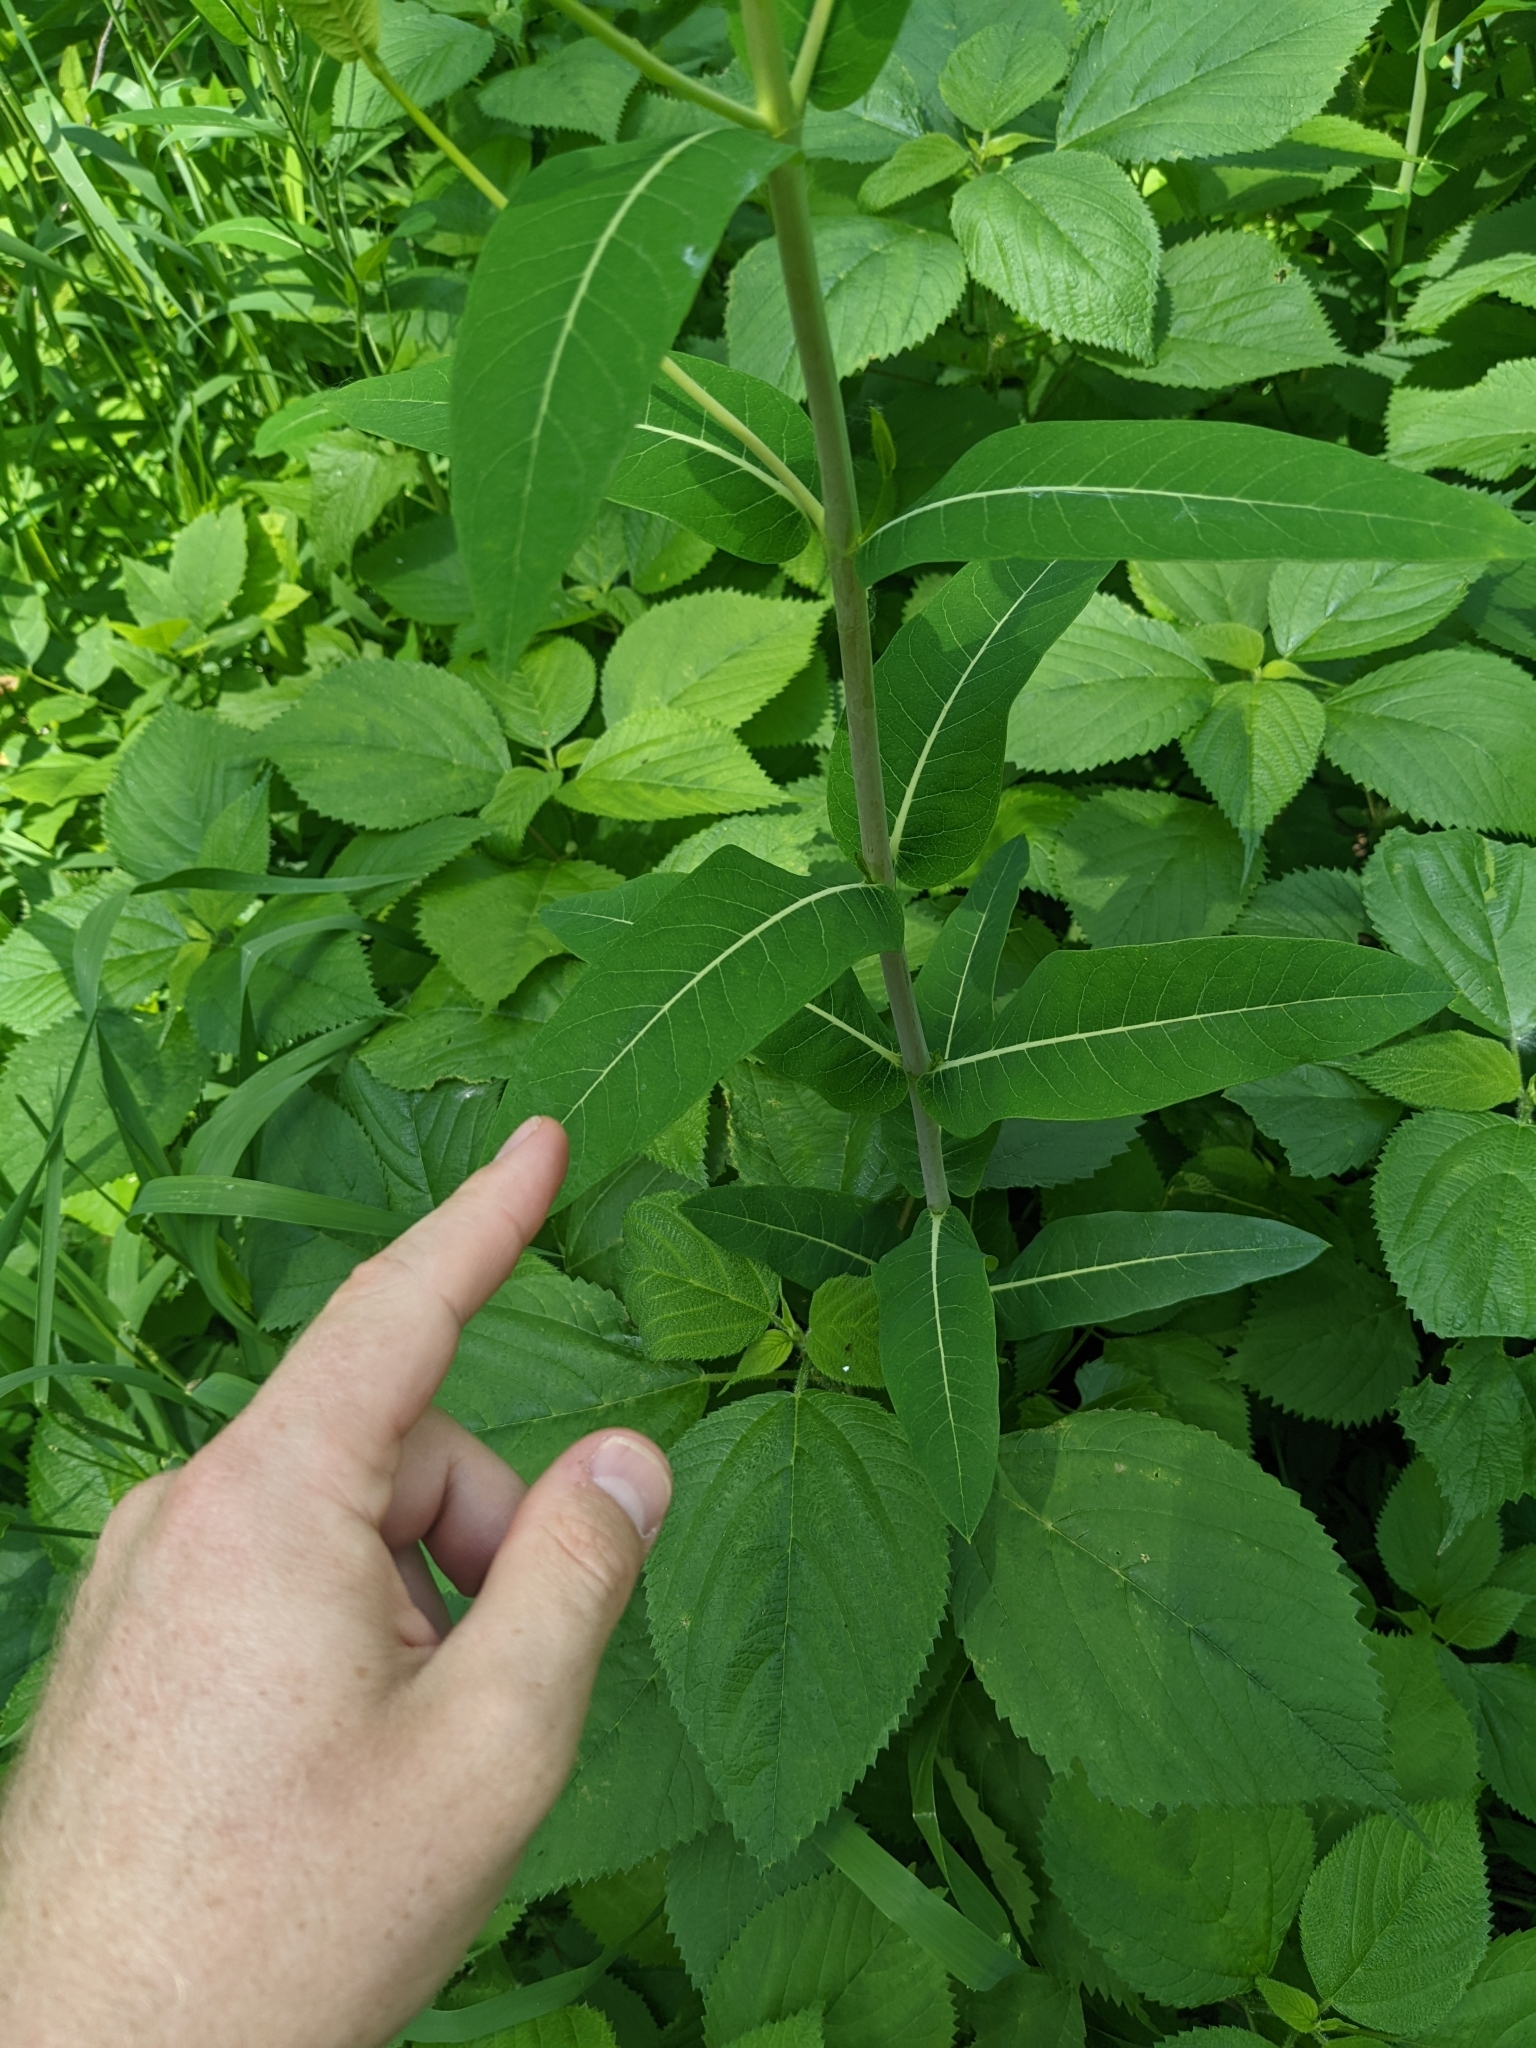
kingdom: Plantae
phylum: Tracheophyta
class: Magnoliopsida
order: Gentianales
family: Apocynaceae
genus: Apocynum
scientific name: Apocynum cannabinum
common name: Hemp dogbane
